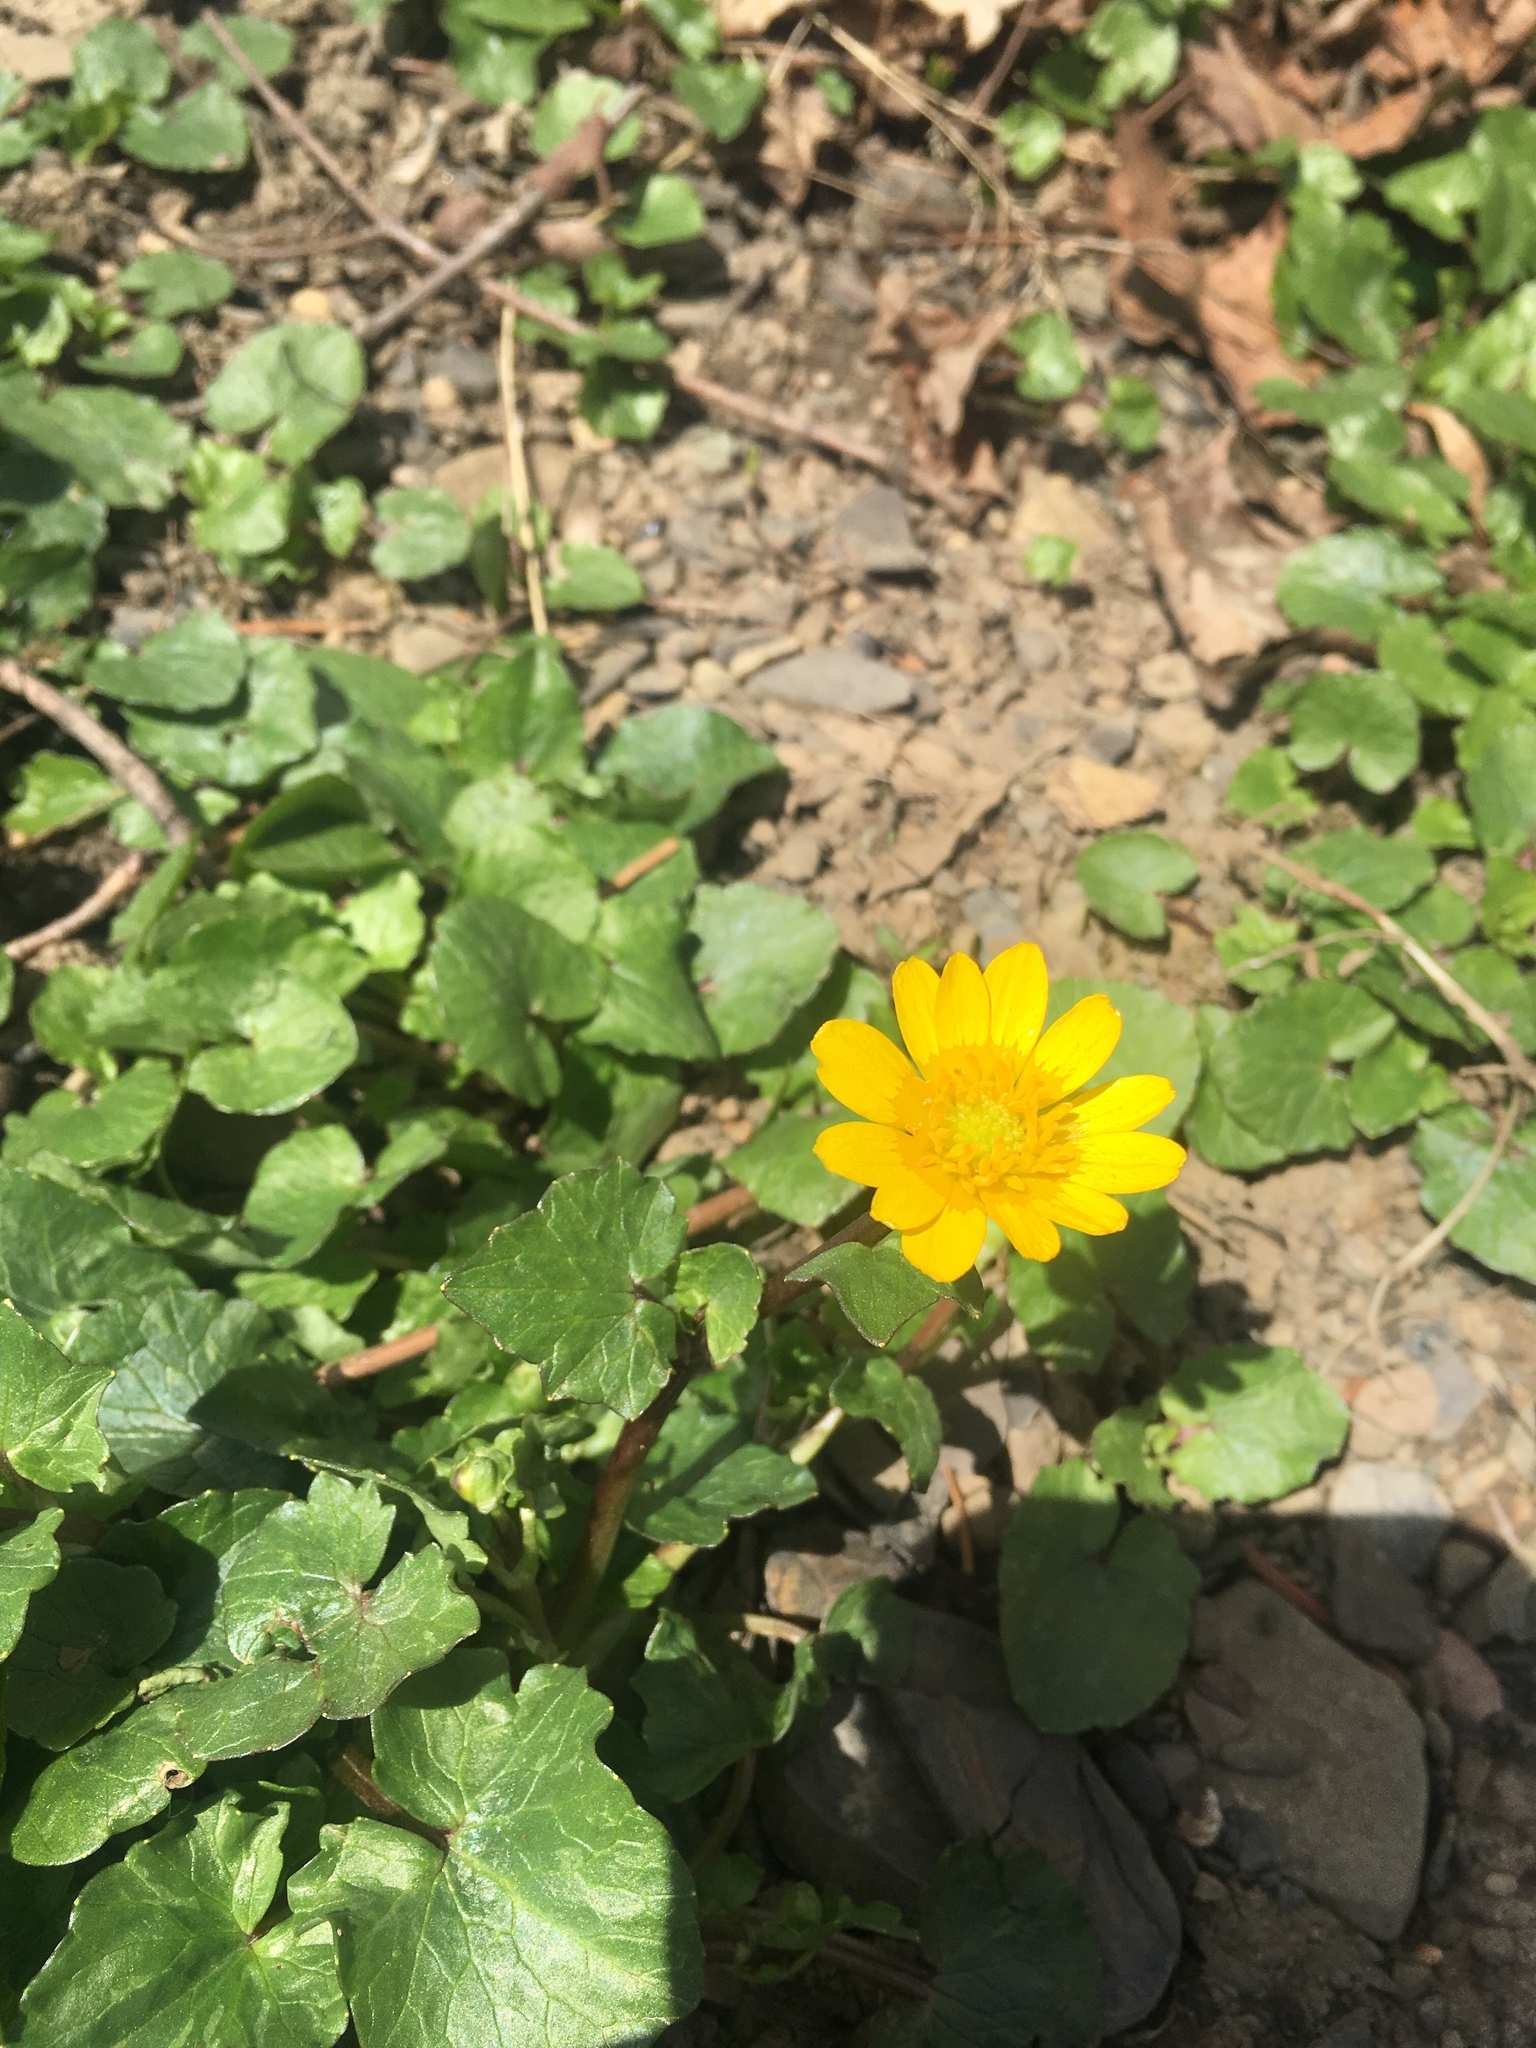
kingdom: Plantae
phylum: Tracheophyta
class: Magnoliopsida
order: Ranunculales
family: Ranunculaceae
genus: Ficaria
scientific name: Ficaria verna
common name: Lesser celandine
